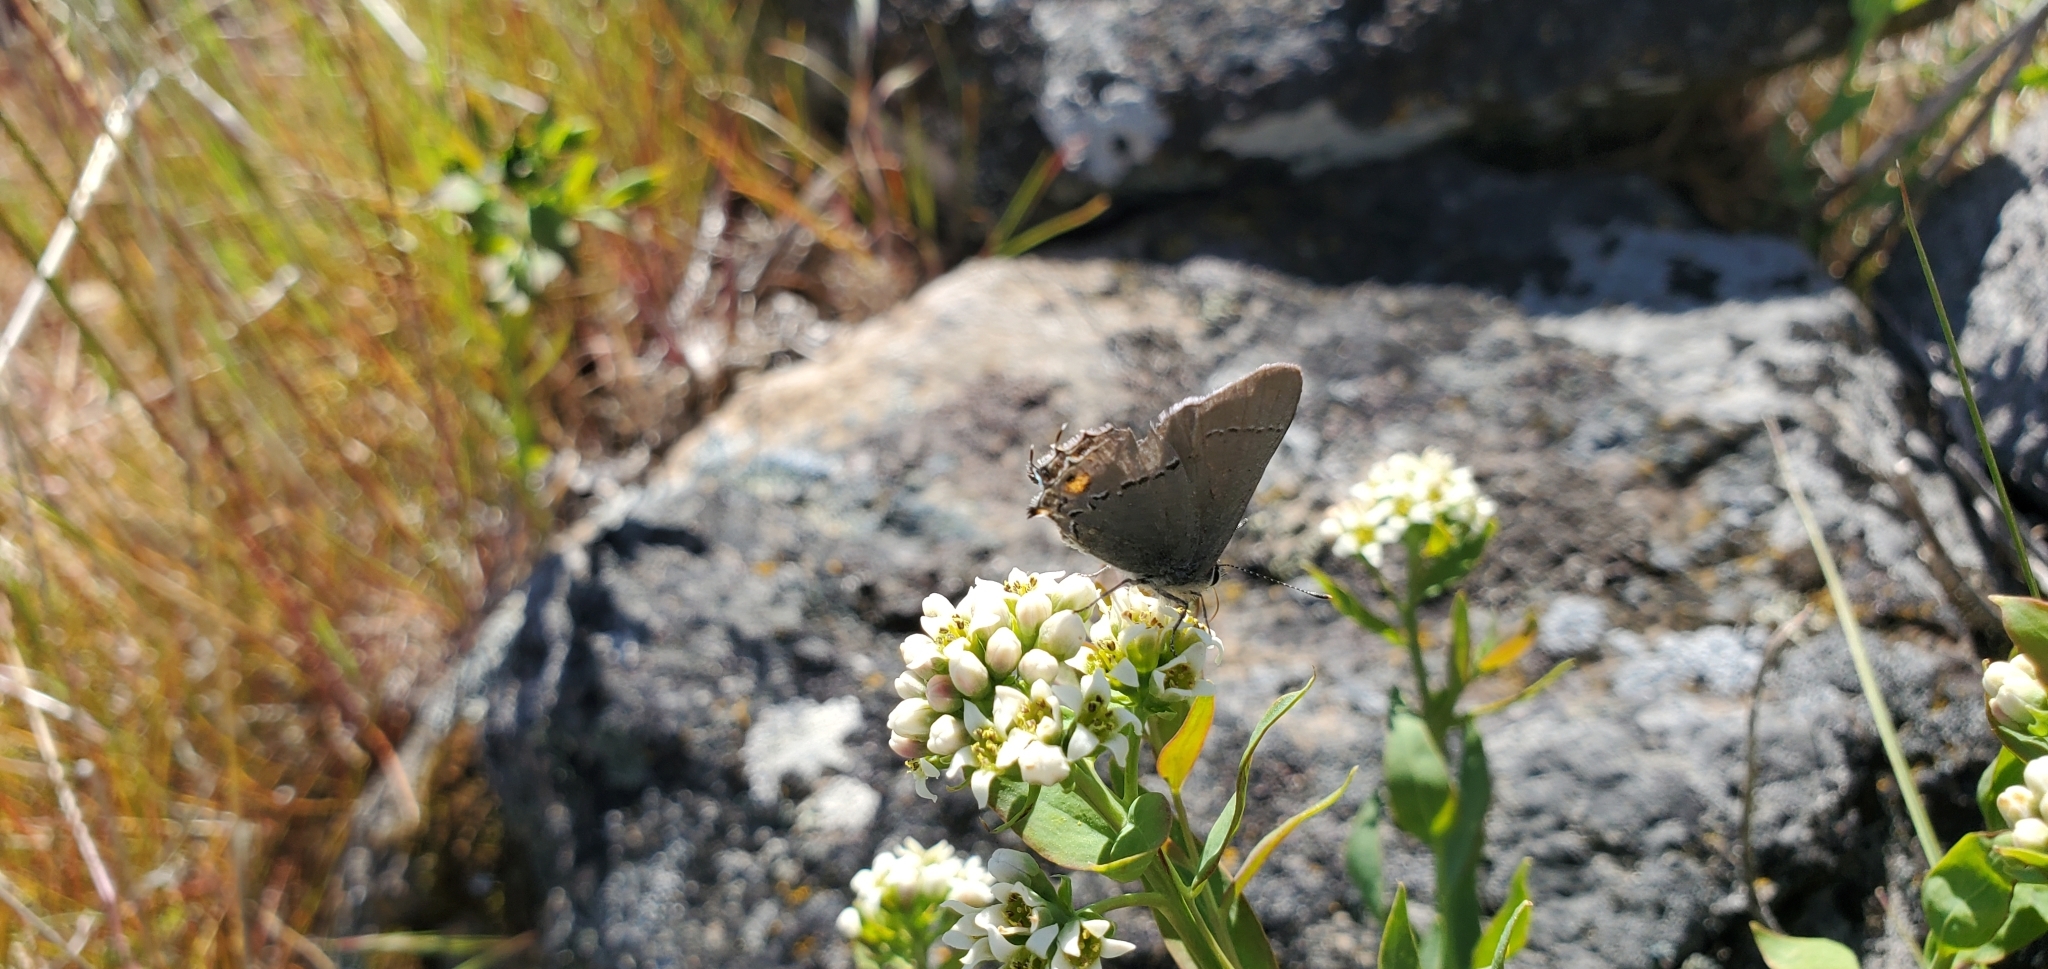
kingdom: Animalia
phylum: Arthropoda
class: Insecta
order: Lepidoptera
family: Lycaenidae
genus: Strymon
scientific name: Strymon melinus
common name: Gray hairstreak
